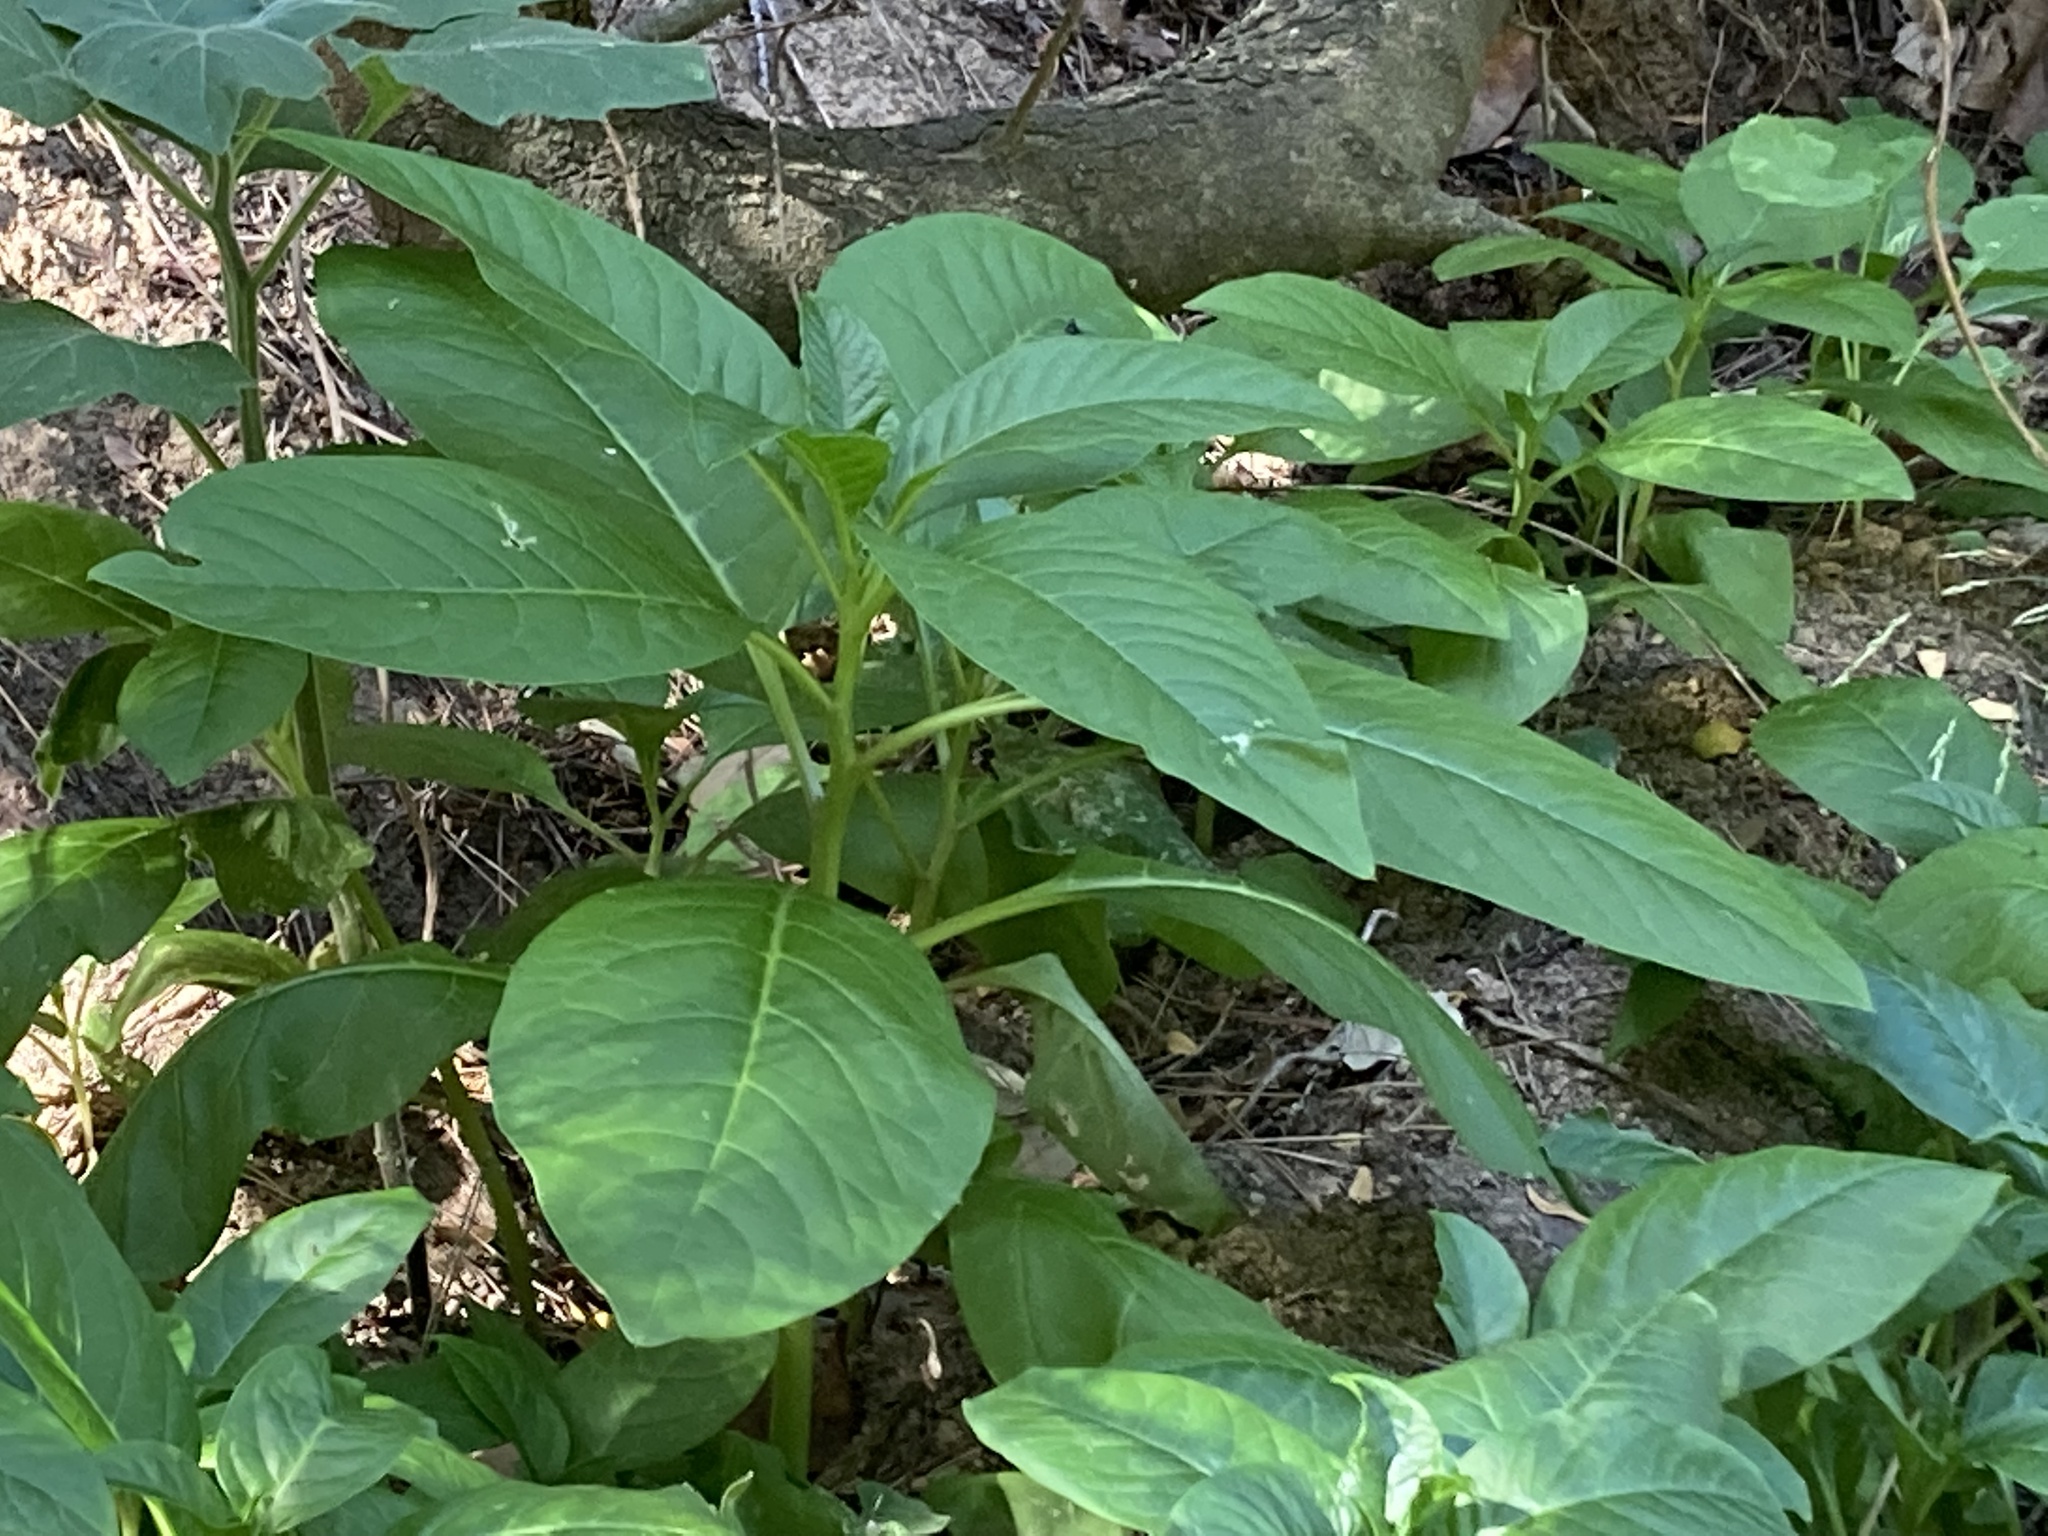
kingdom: Plantae
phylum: Tracheophyta
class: Magnoliopsida
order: Caryophyllales
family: Phytolaccaceae
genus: Phytolacca
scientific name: Phytolacca americana
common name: American pokeweed
